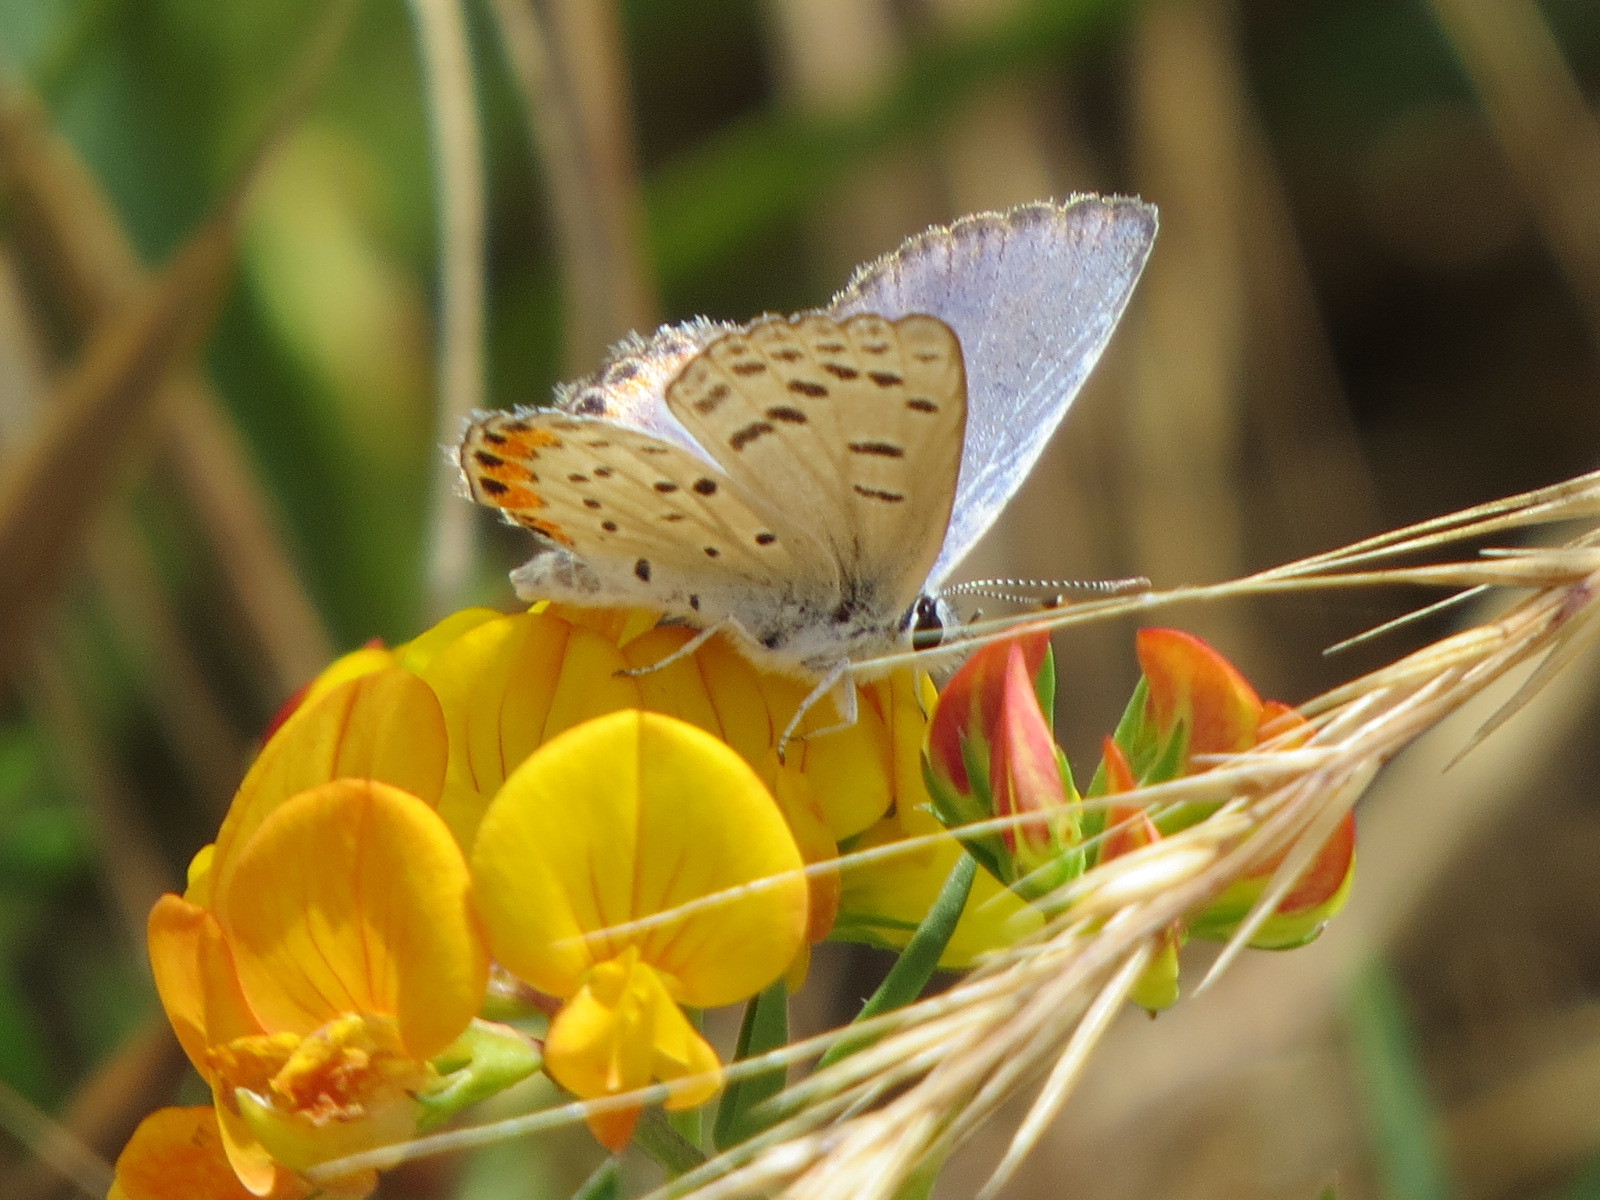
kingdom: Animalia
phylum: Arthropoda
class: Insecta
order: Lepidoptera
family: Lycaenidae
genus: Icaricia
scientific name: Icaricia acmon
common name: Acmon blue
